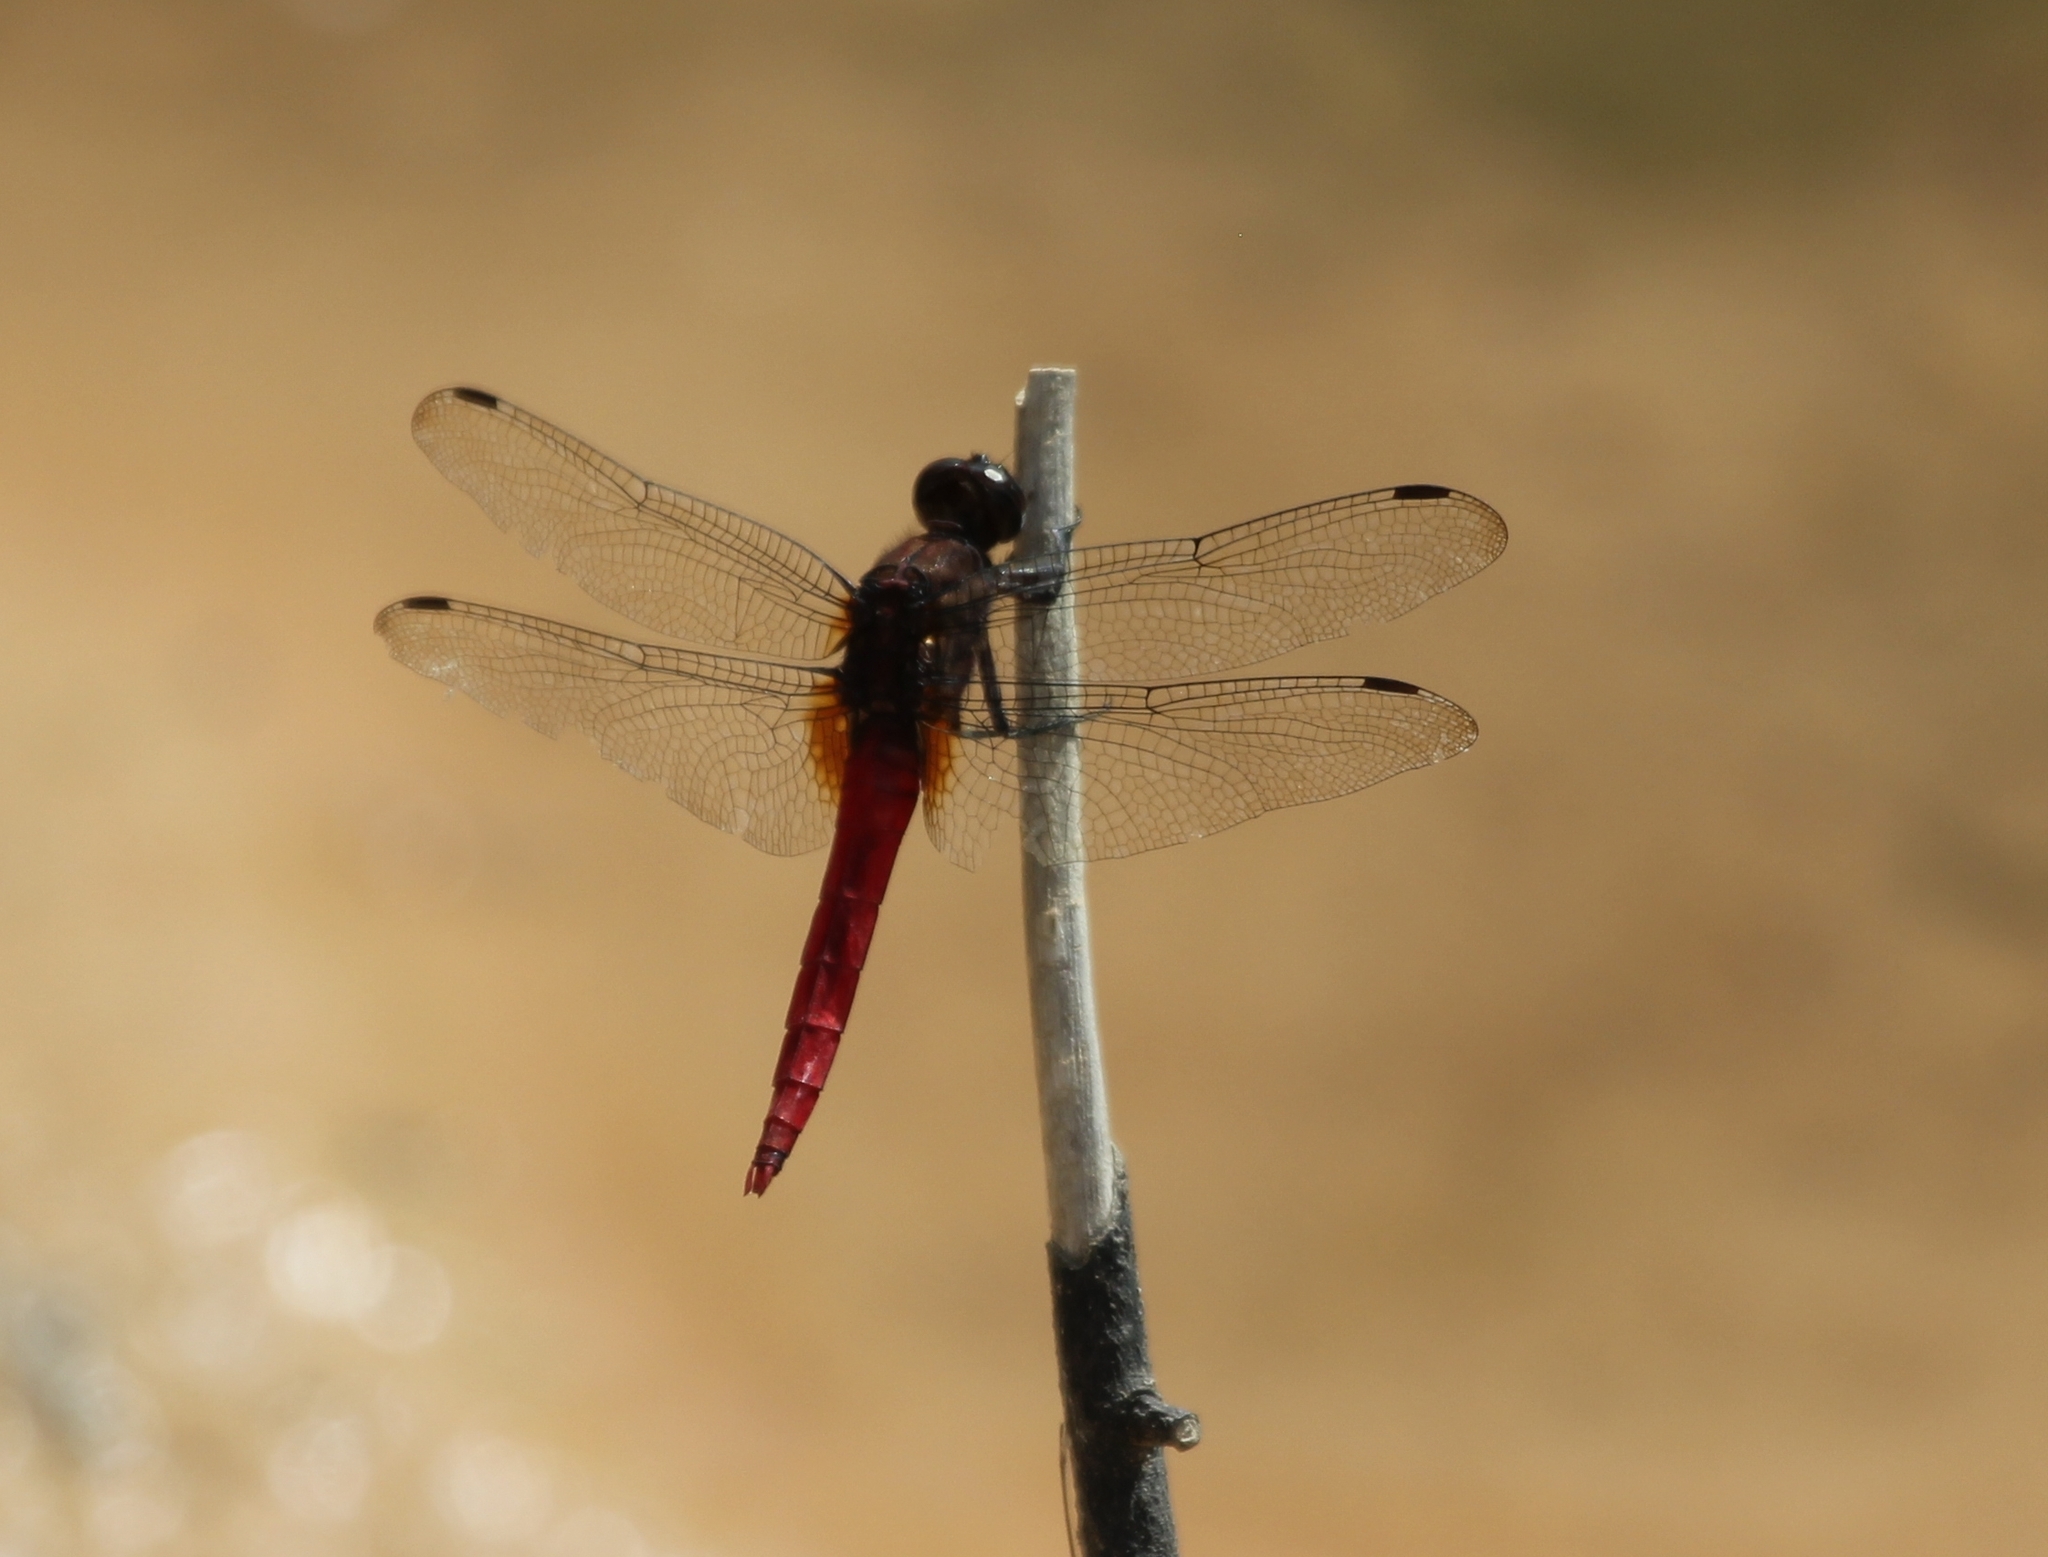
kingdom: Animalia
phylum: Arthropoda
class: Insecta
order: Odonata
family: Libellulidae
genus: Orthetrum
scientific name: Orthetrum chrysis
